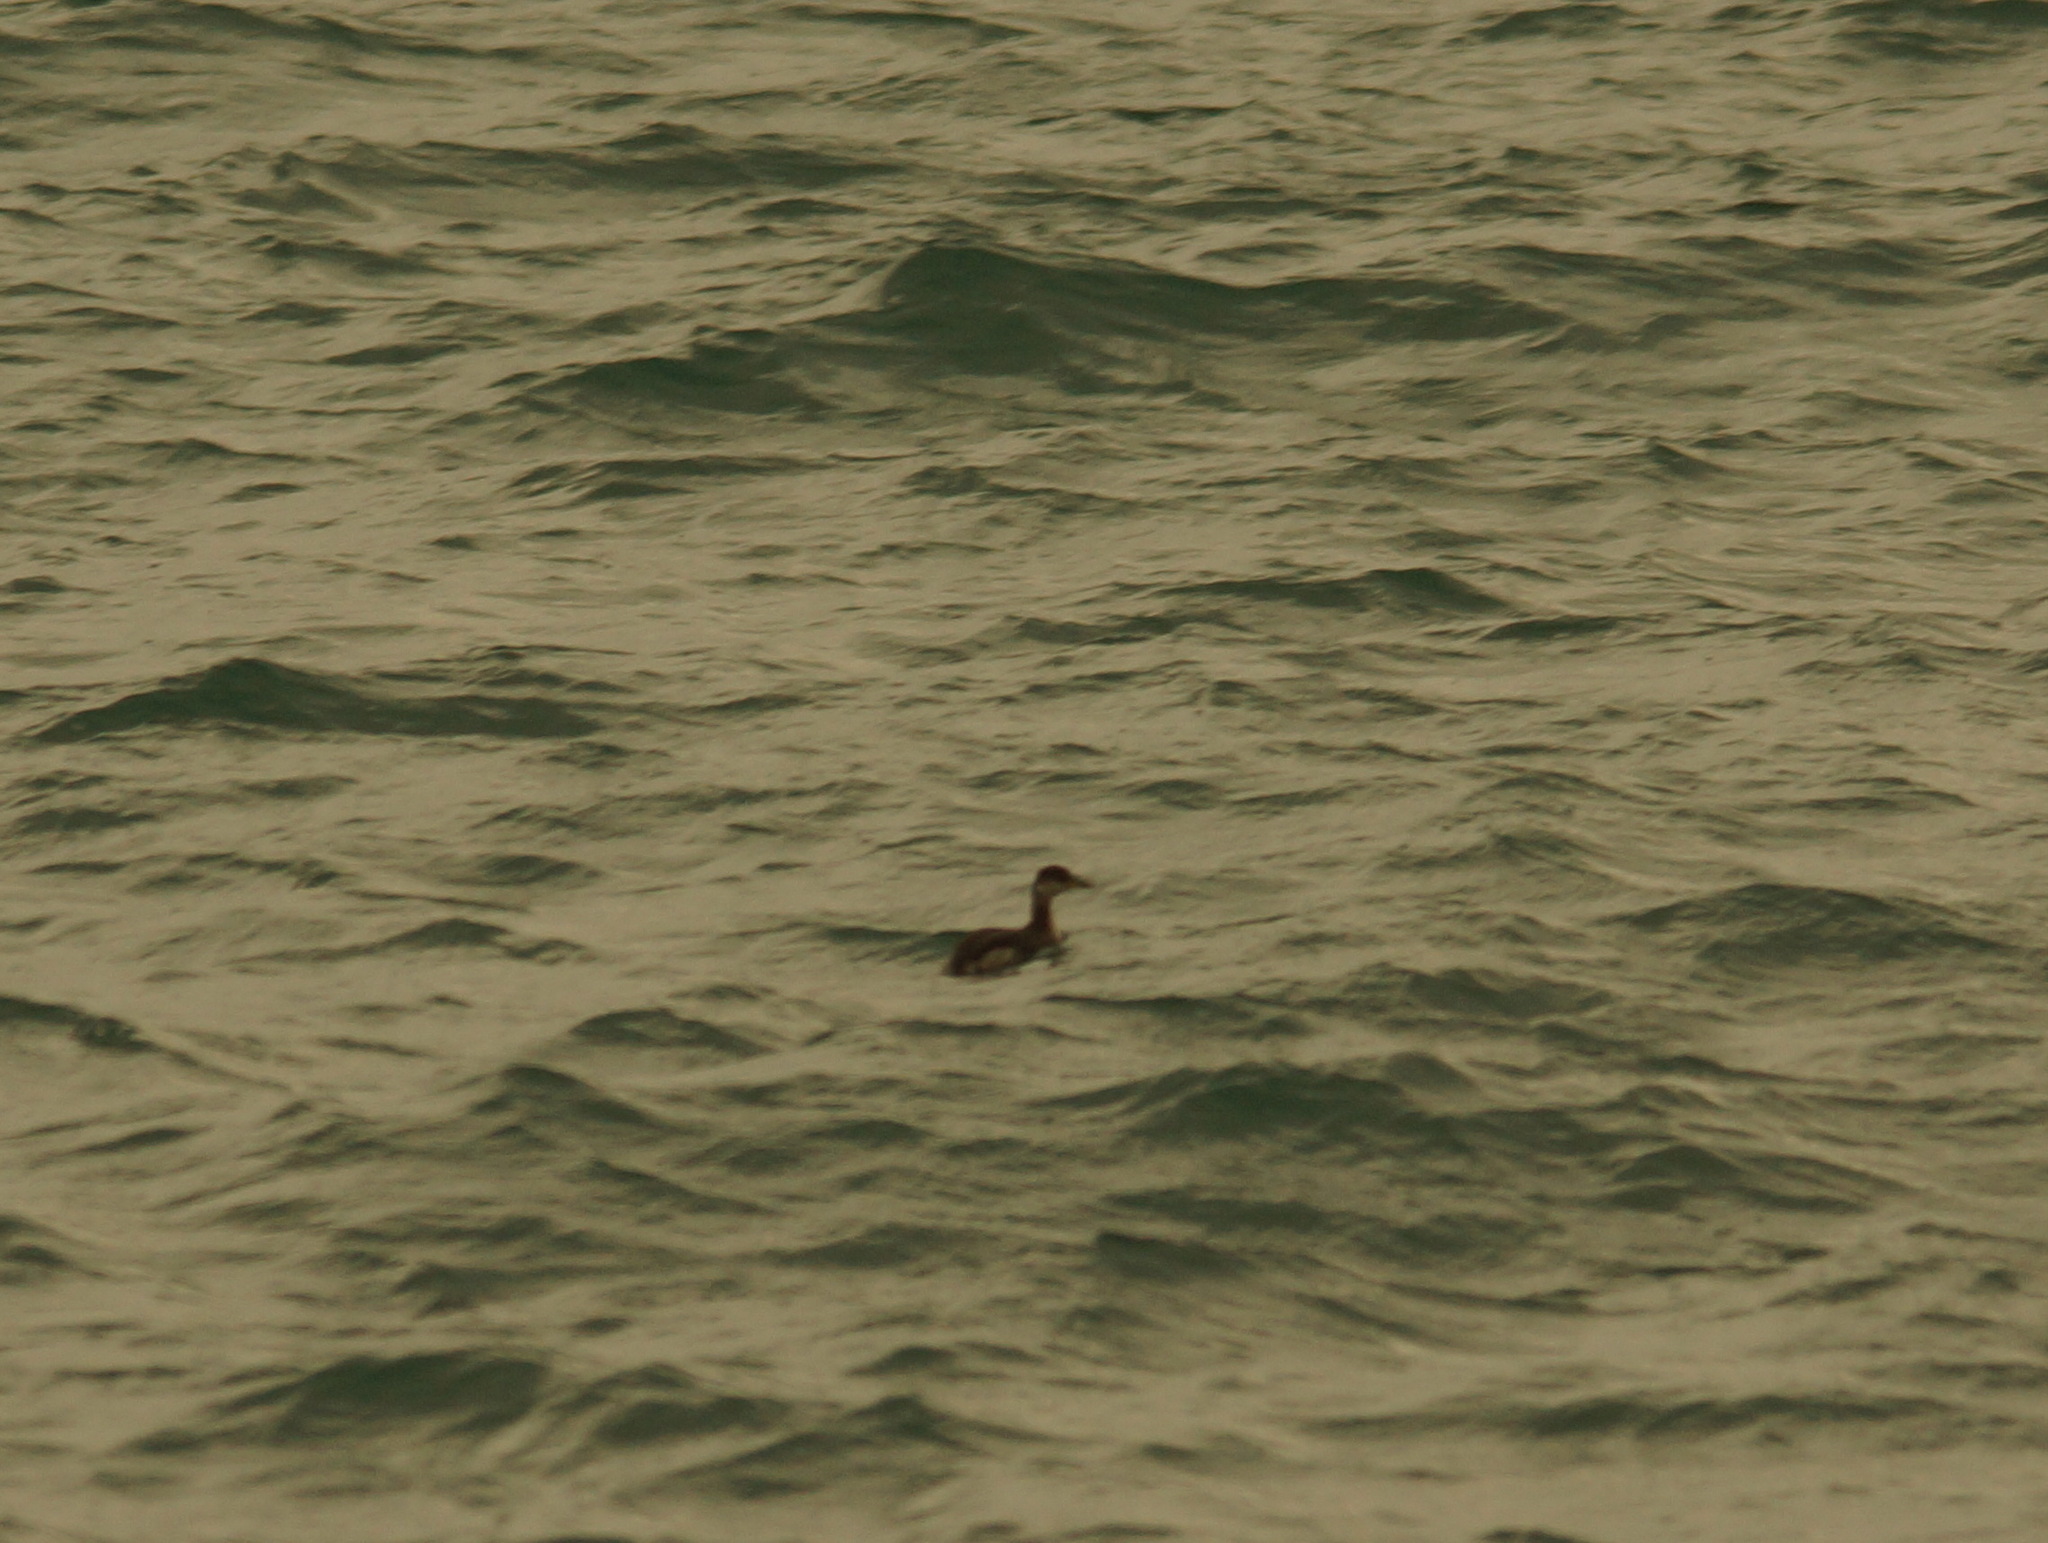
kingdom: Animalia
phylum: Chordata
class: Aves
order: Podicipediformes
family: Podicipedidae
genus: Podiceps
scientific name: Podiceps grisegena
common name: Red-necked grebe
